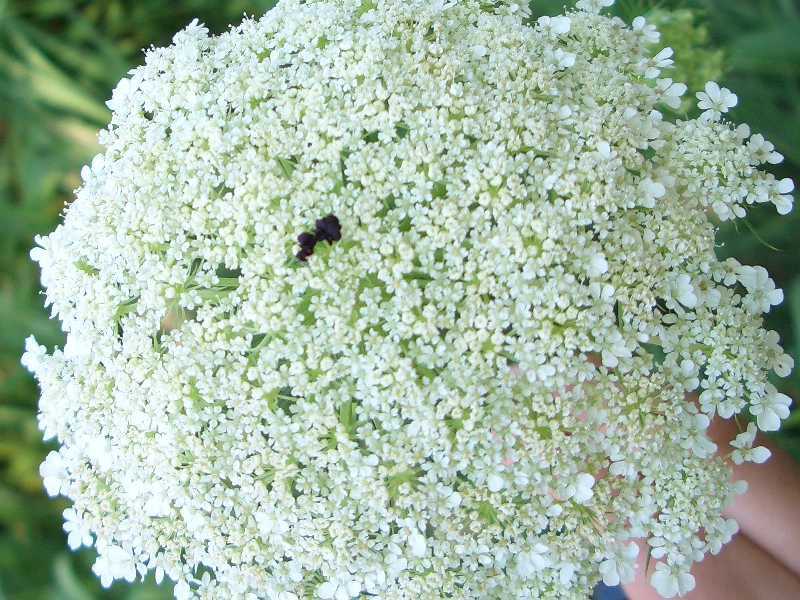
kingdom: Plantae
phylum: Tracheophyta
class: Magnoliopsida
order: Apiales
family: Apiaceae
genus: Daucus
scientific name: Daucus carota
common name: Wild carrot
